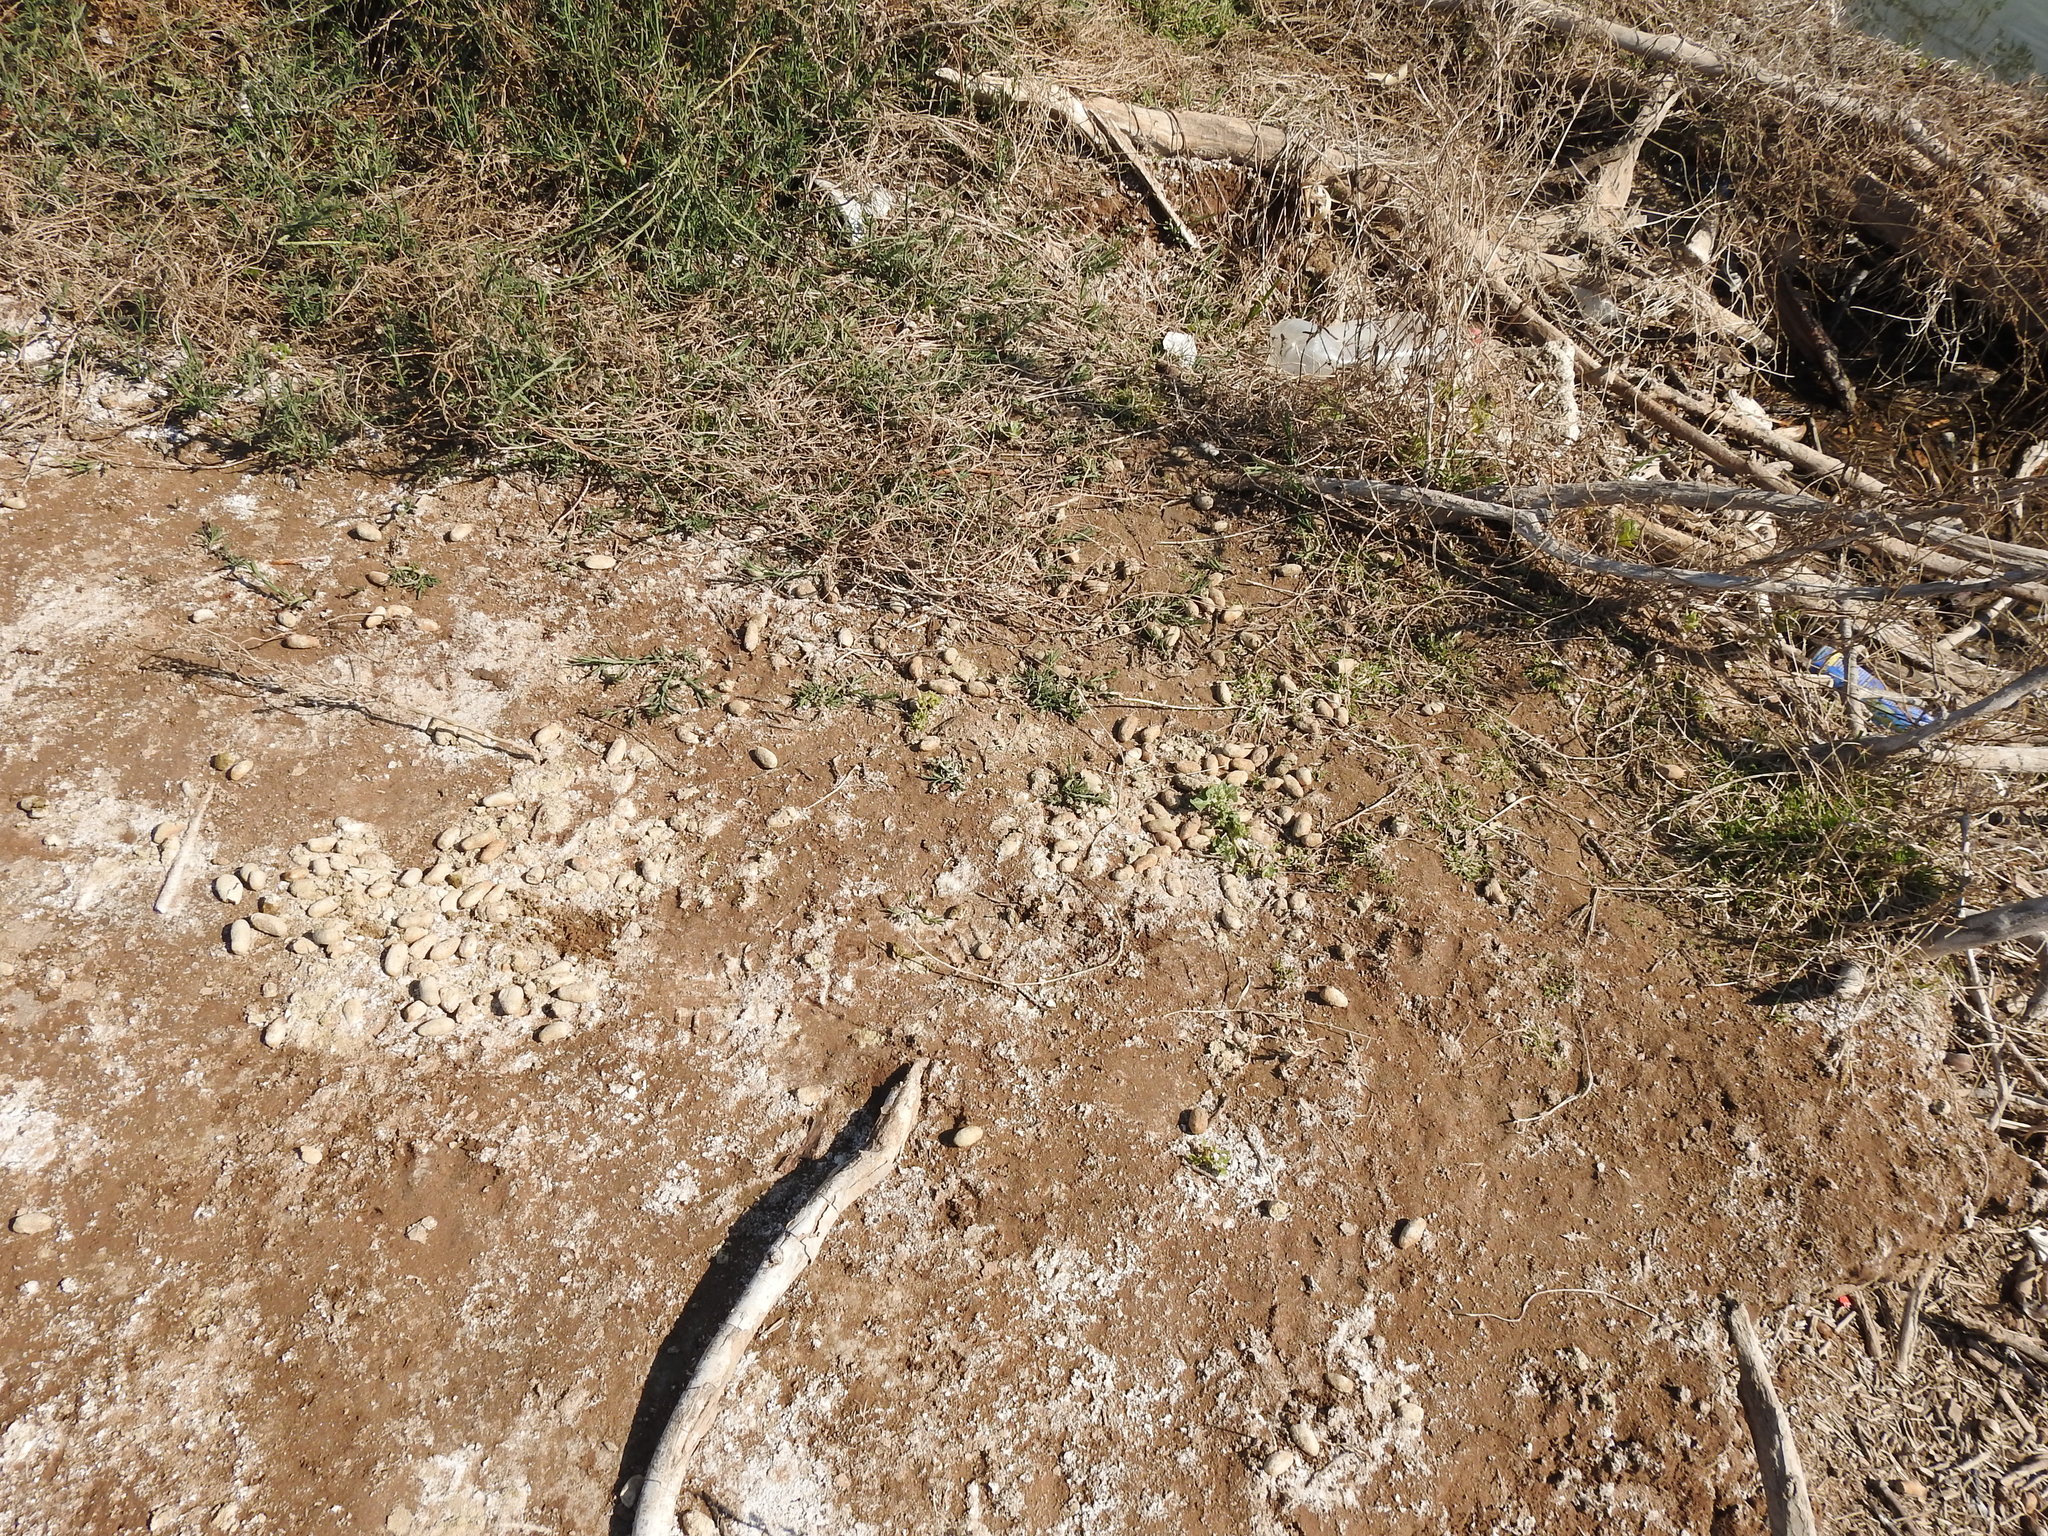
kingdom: Animalia
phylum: Chordata
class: Mammalia
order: Rodentia
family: Caviidae
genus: Hydrochoerus
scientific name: Hydrochoerus hydrochaeris
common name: Capybara
